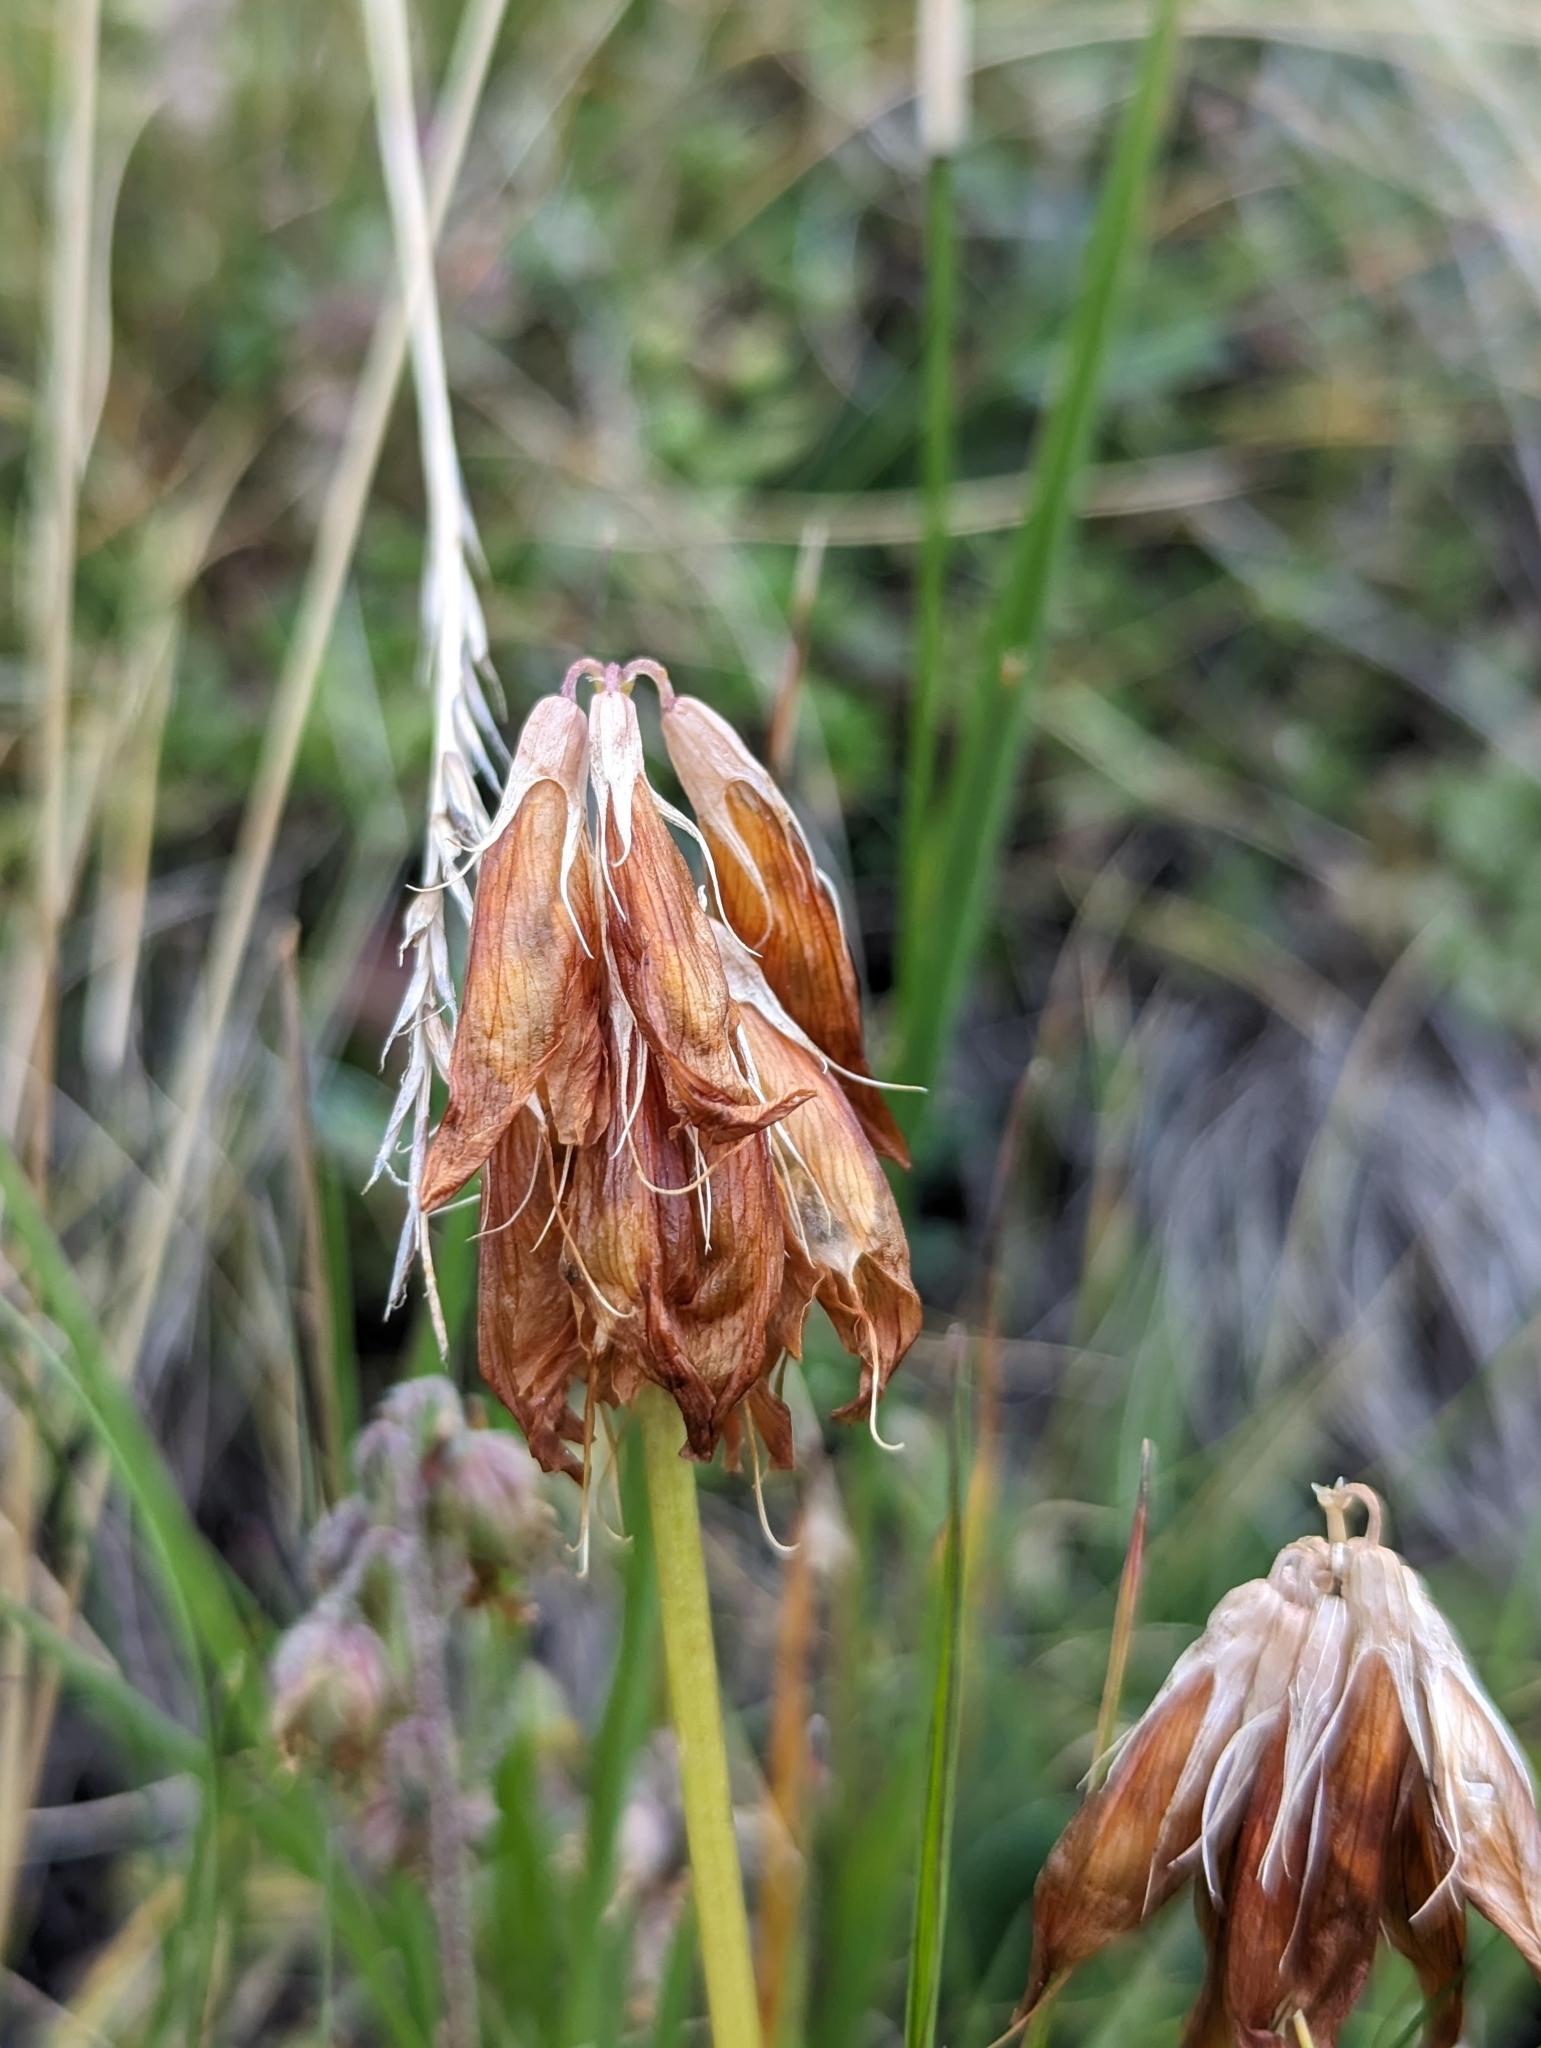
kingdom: Plantae
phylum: Tracheophyta
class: Magnoliopsida
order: Fabales
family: Fabaceae
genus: Trifolium
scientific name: Trifolium alpinum
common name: Alpine clover
